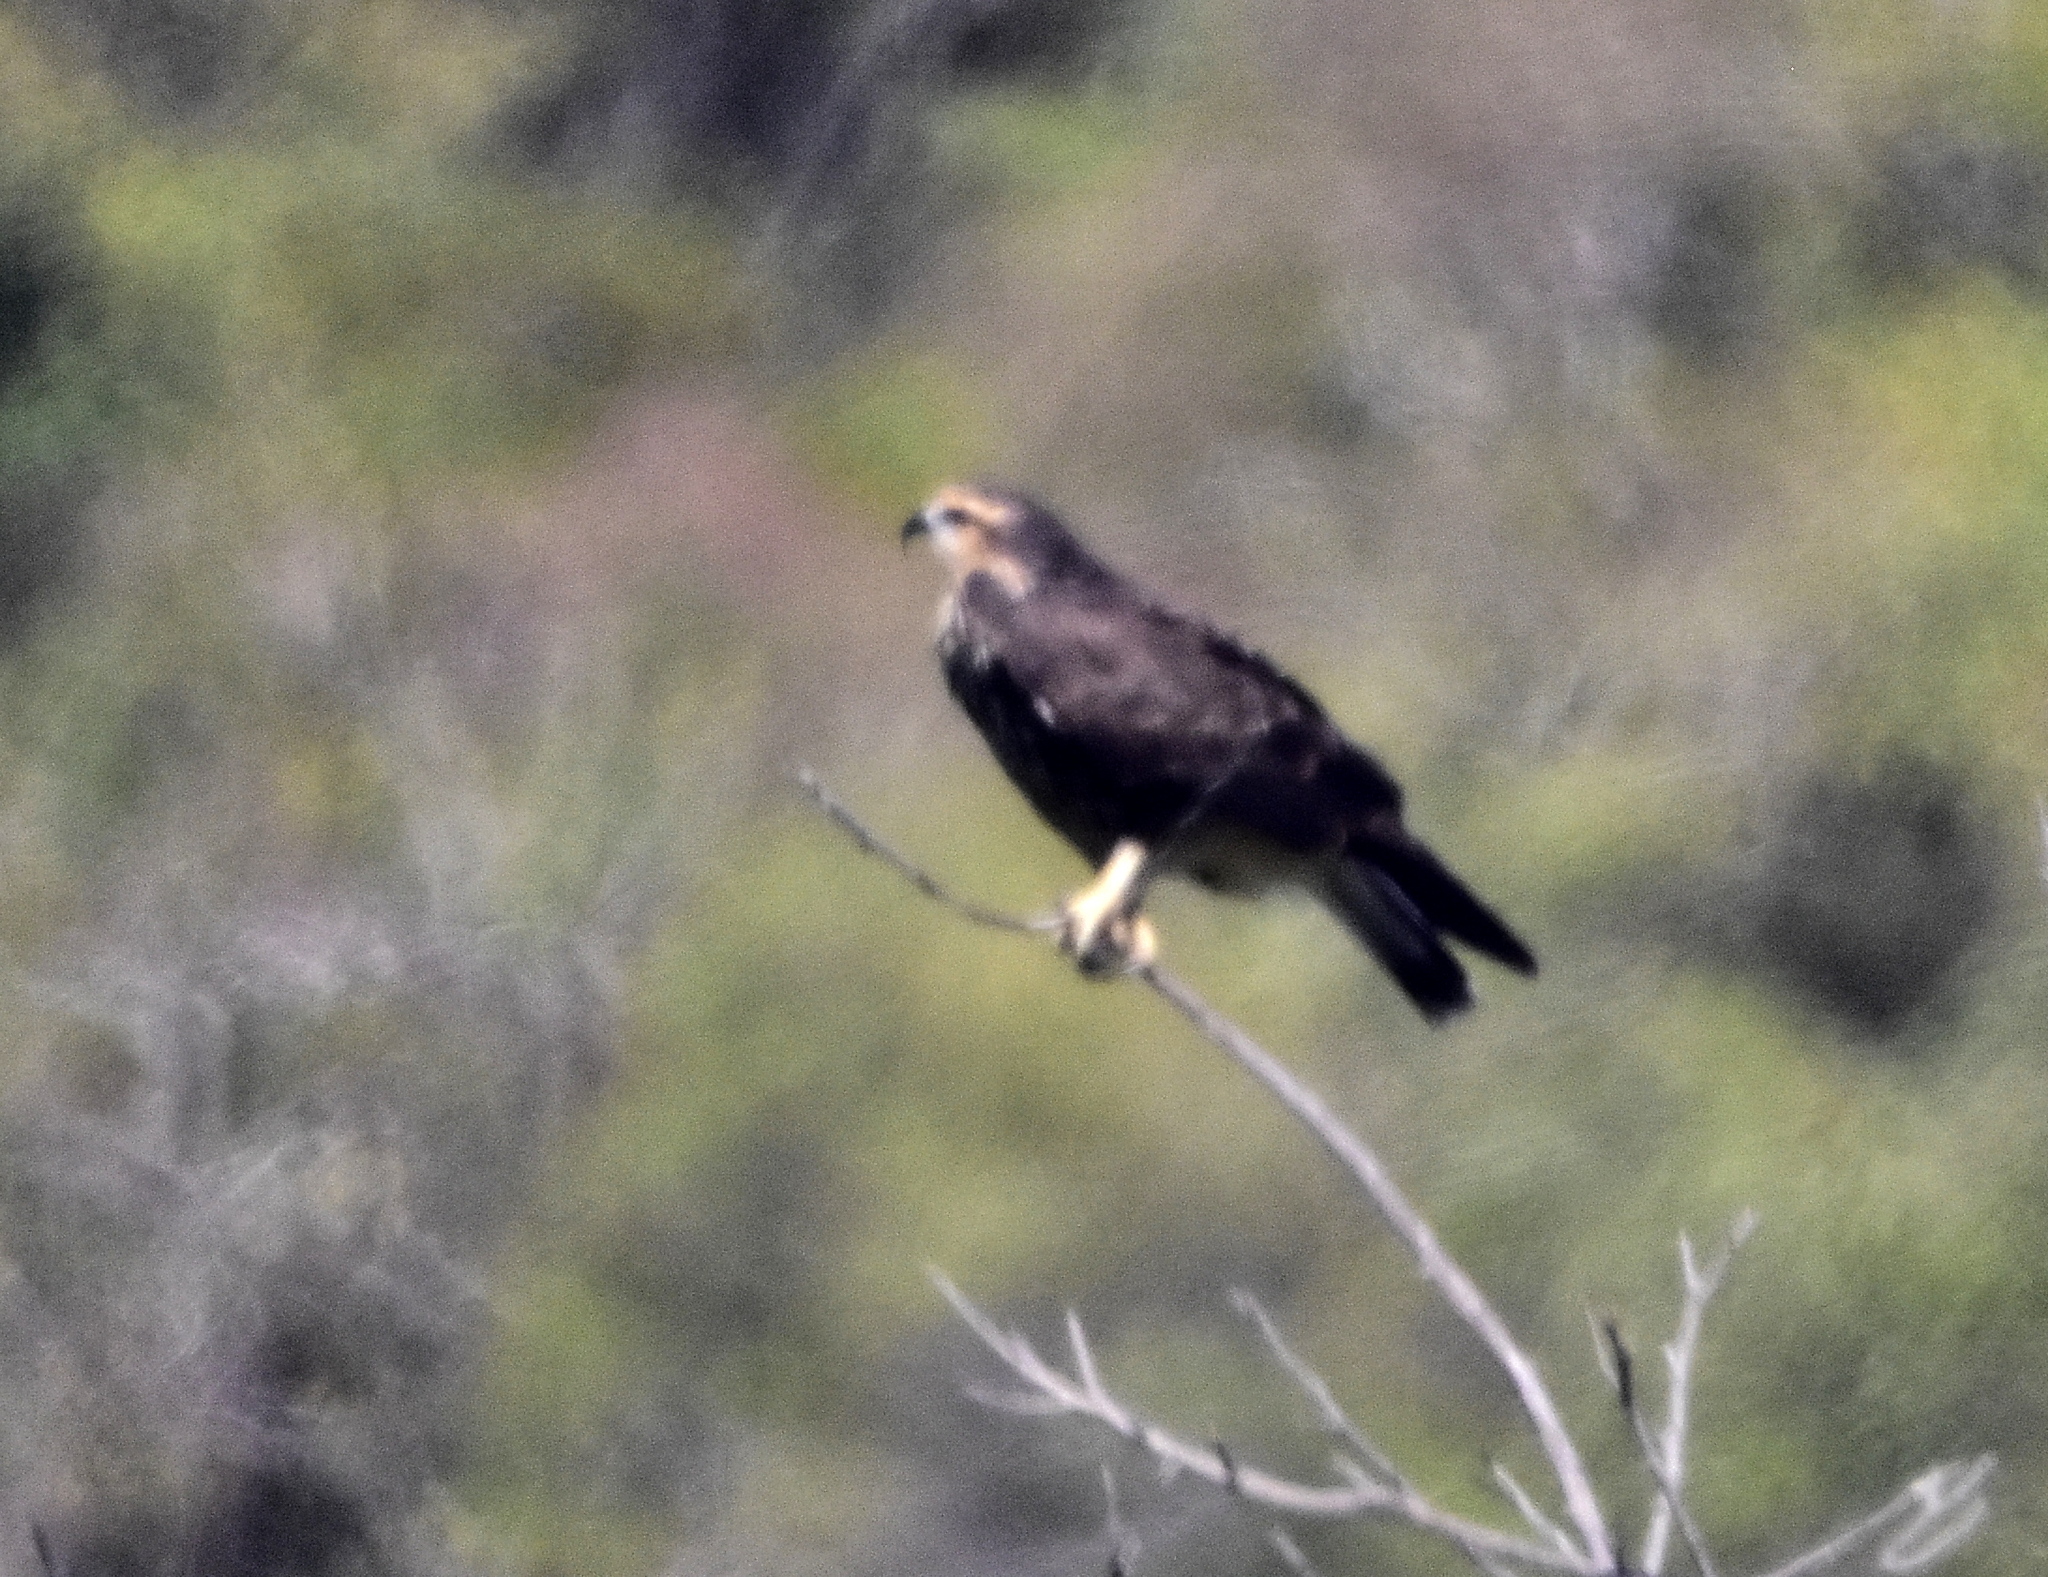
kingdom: Animalia
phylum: Chordata
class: Aves
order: Accipitriformes
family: Accipitridae
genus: Rostrhamus
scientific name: Rostrhamus sociabilis
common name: Snail kite
